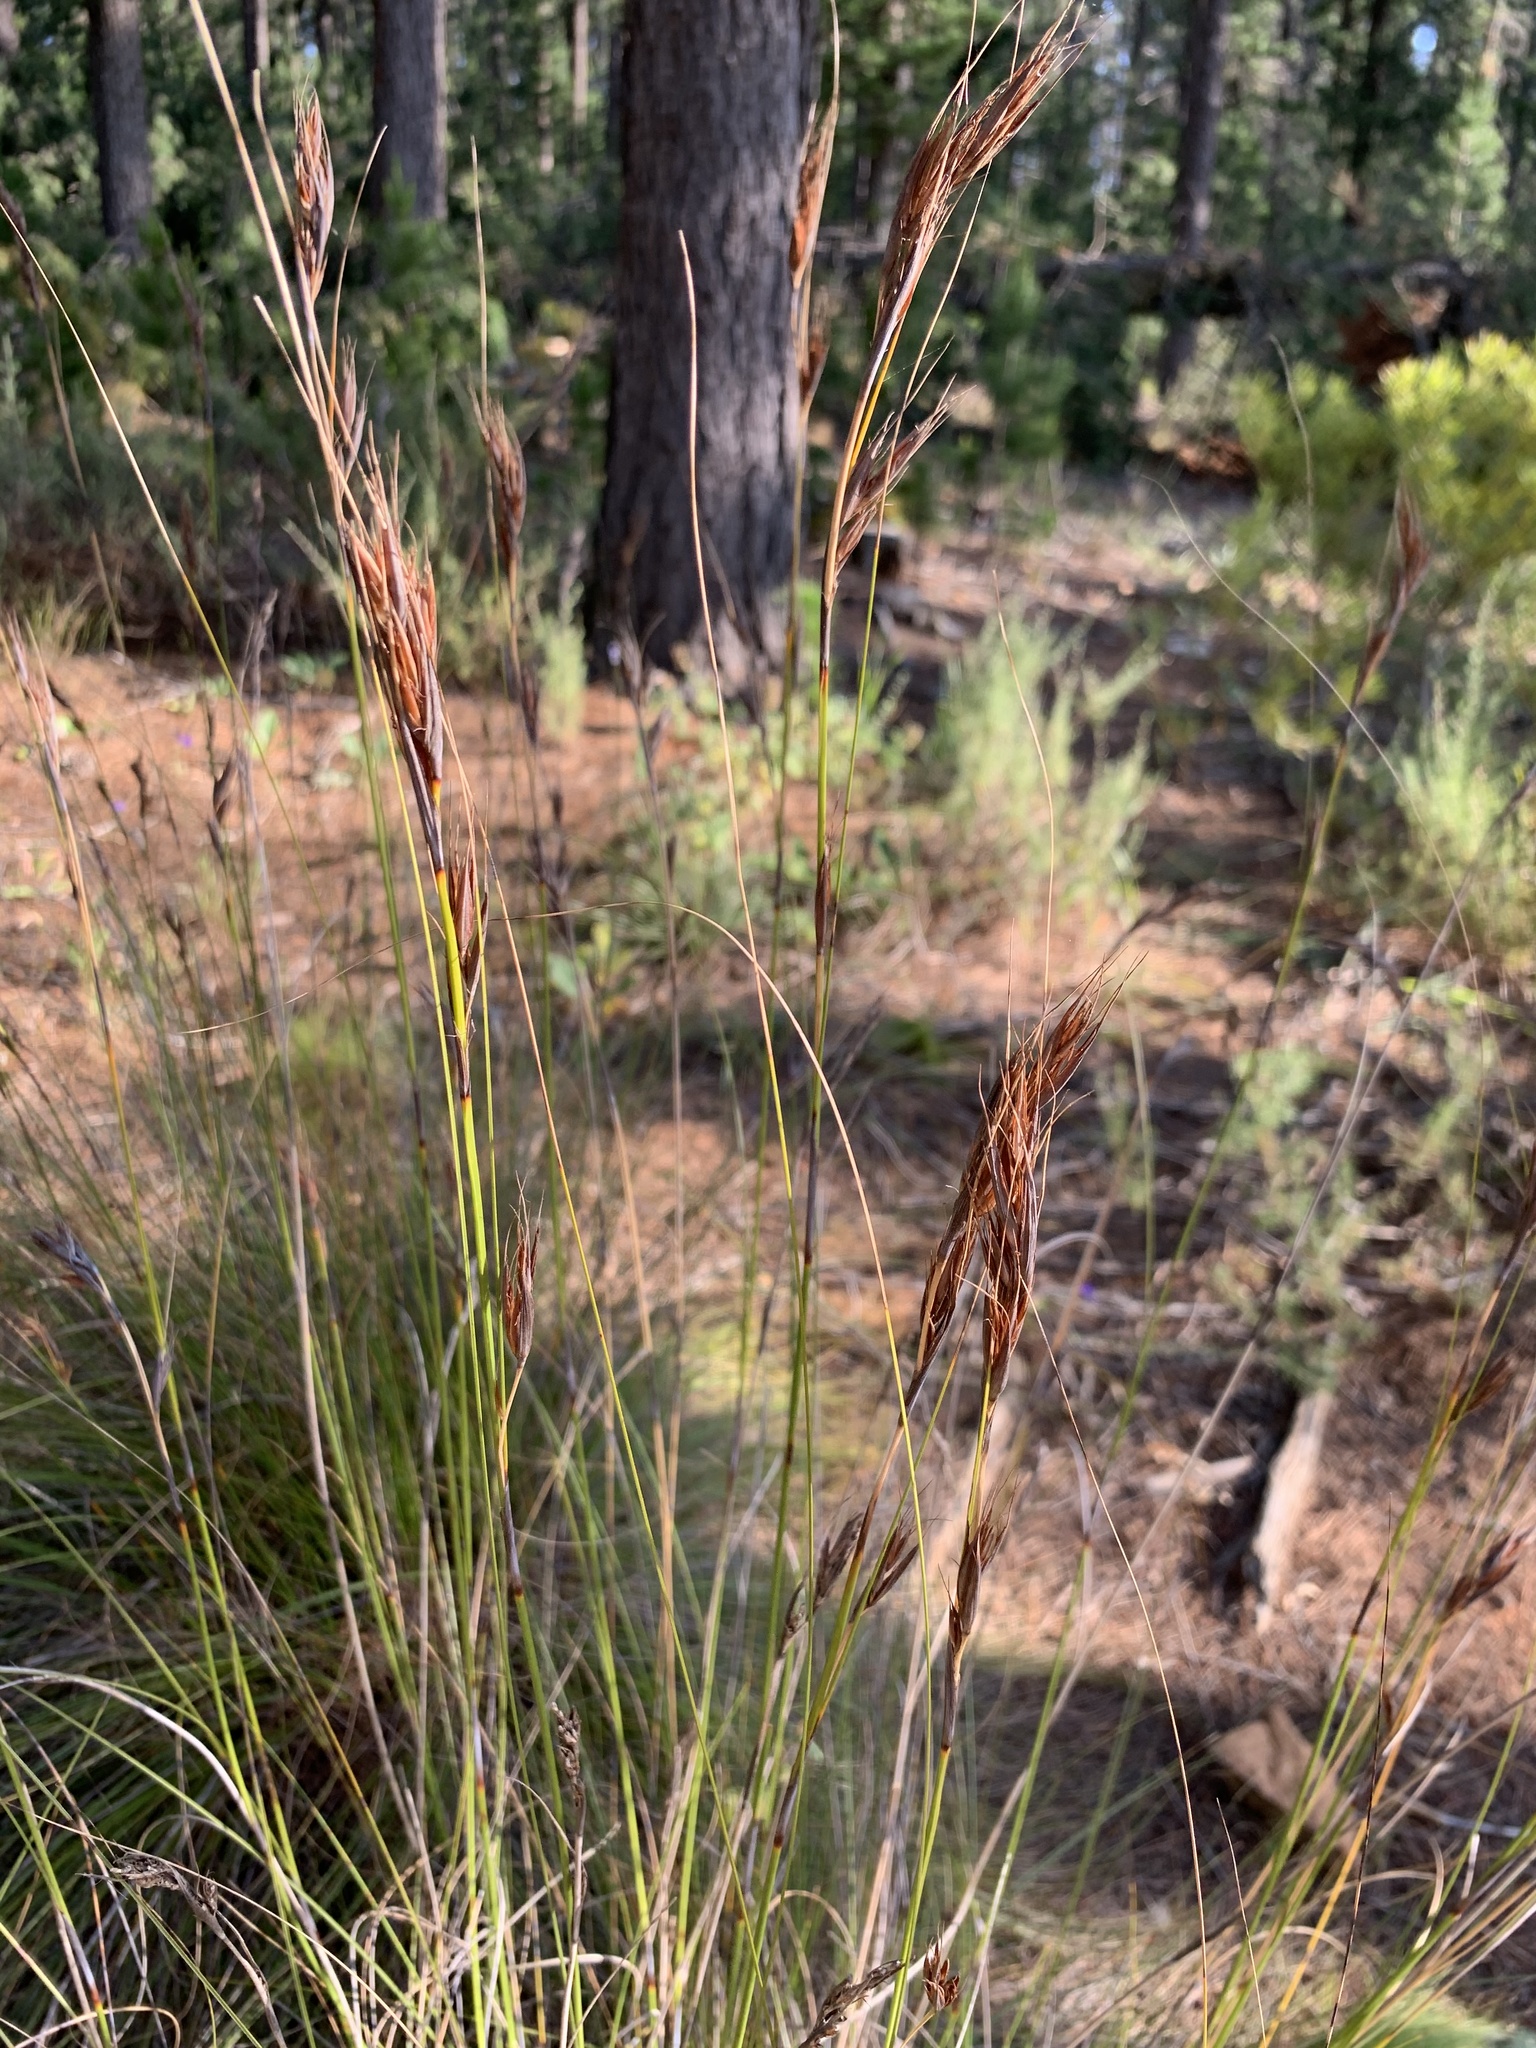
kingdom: Plantae
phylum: Tracheophyta
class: Liliopsida
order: Poales
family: Cyperaceae
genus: Tetraria
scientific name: Tetraria ustulata
